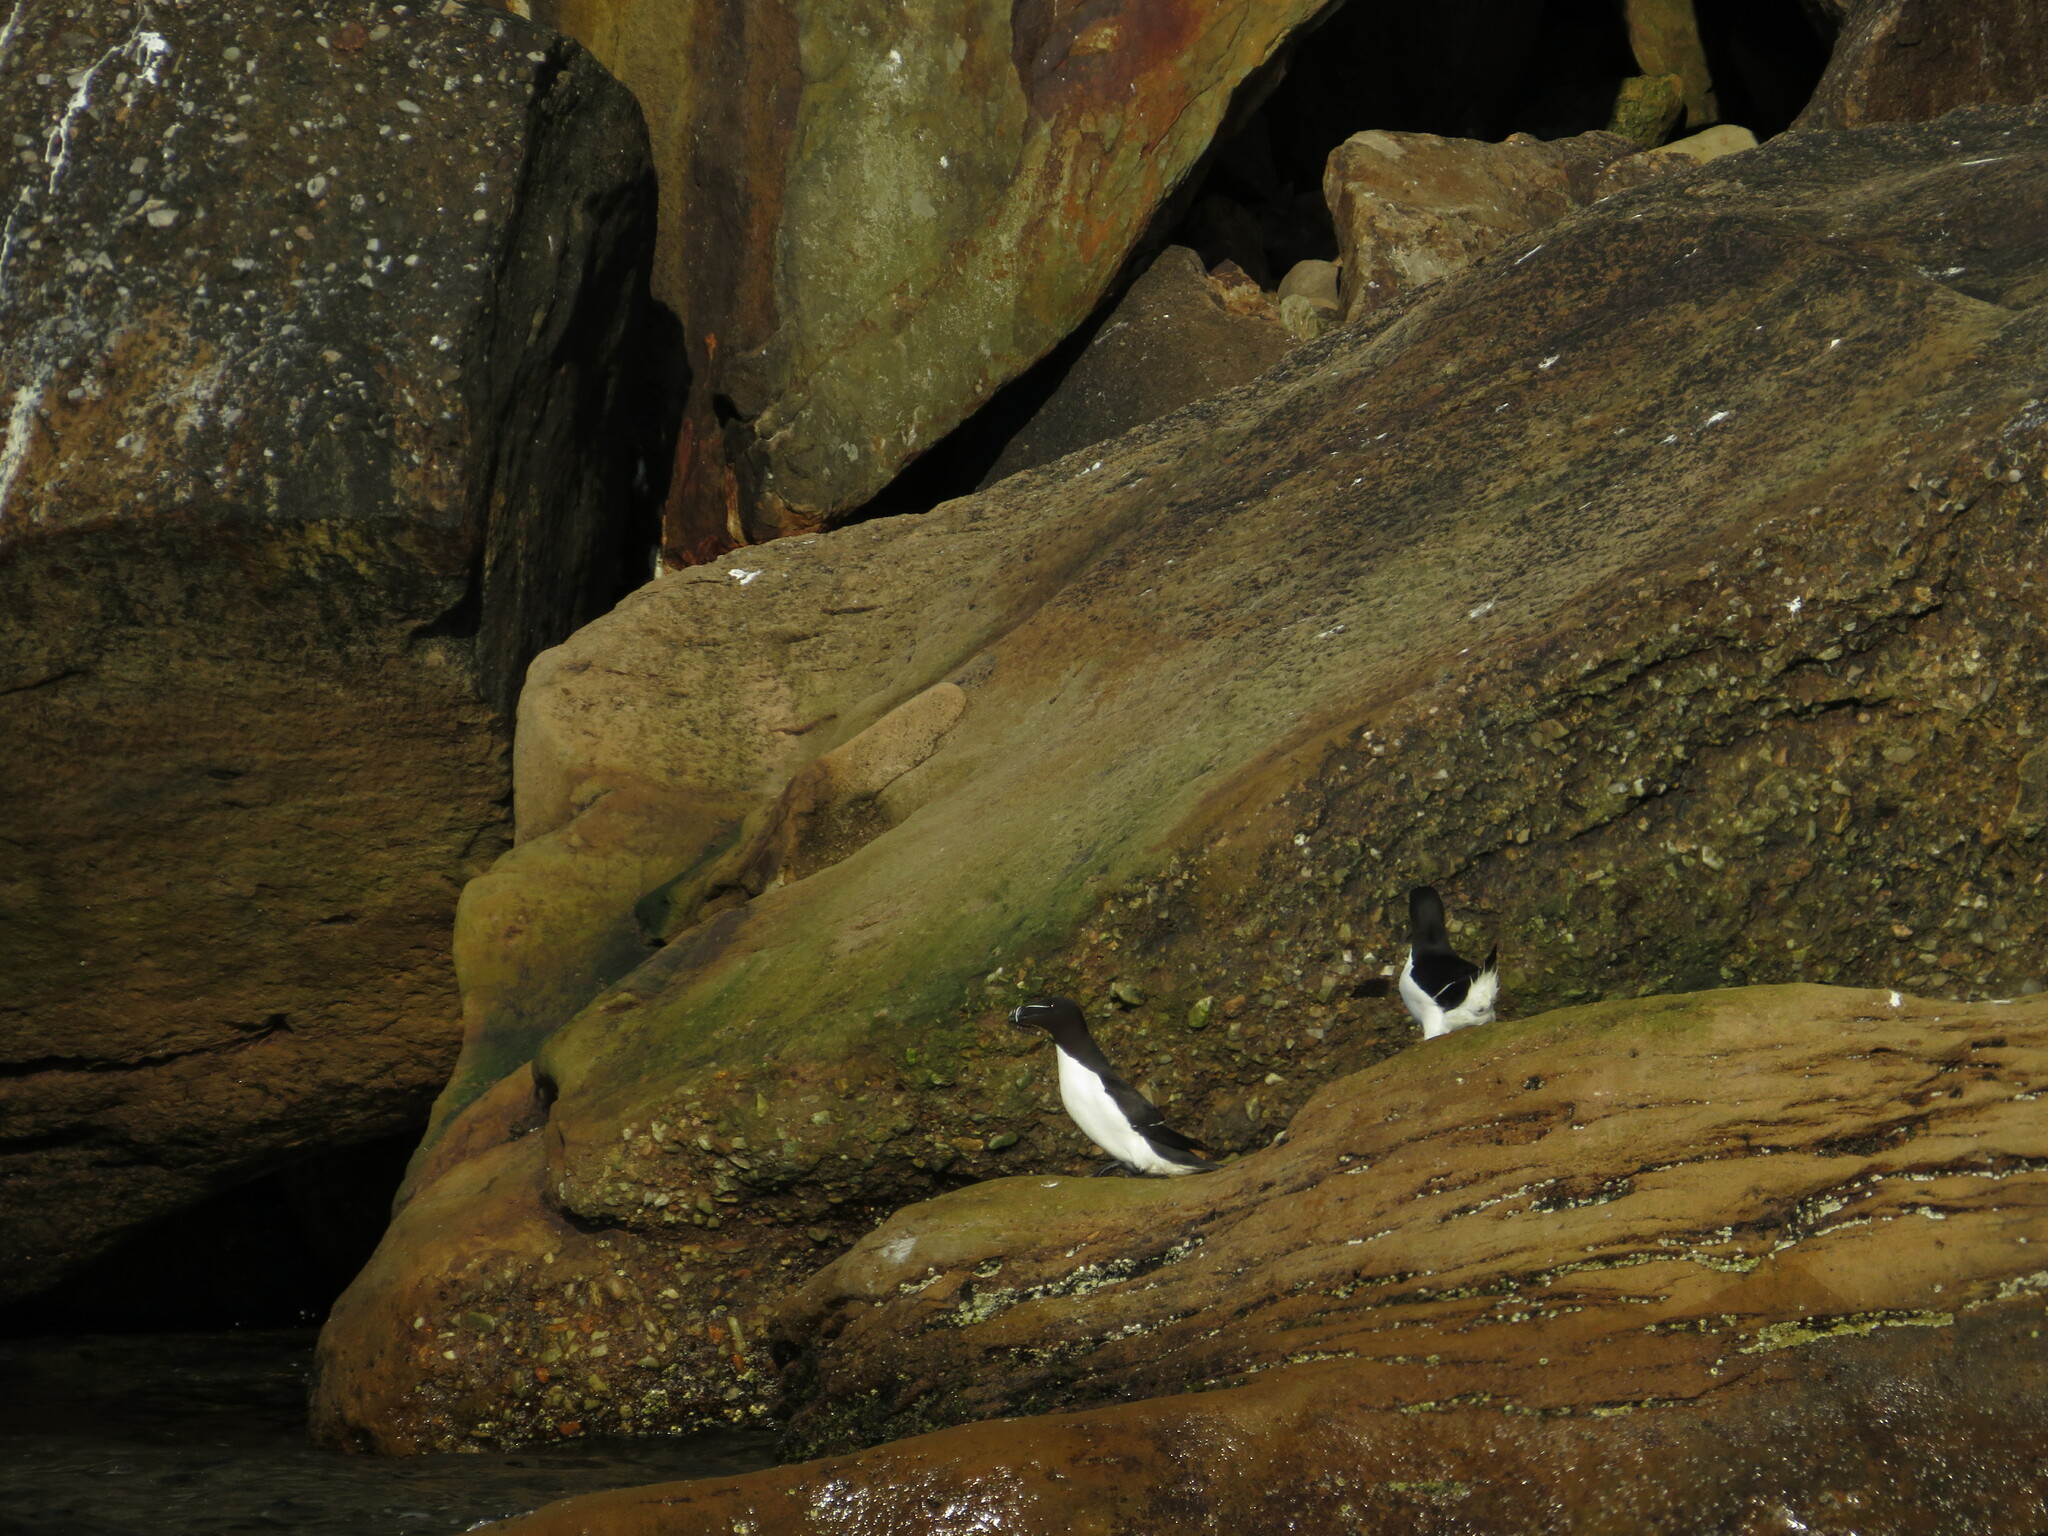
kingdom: Animalia
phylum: Chordata
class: Aves
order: Charadriiformes
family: Alcidae
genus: Alca
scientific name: Alca torda
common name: Razorbill
